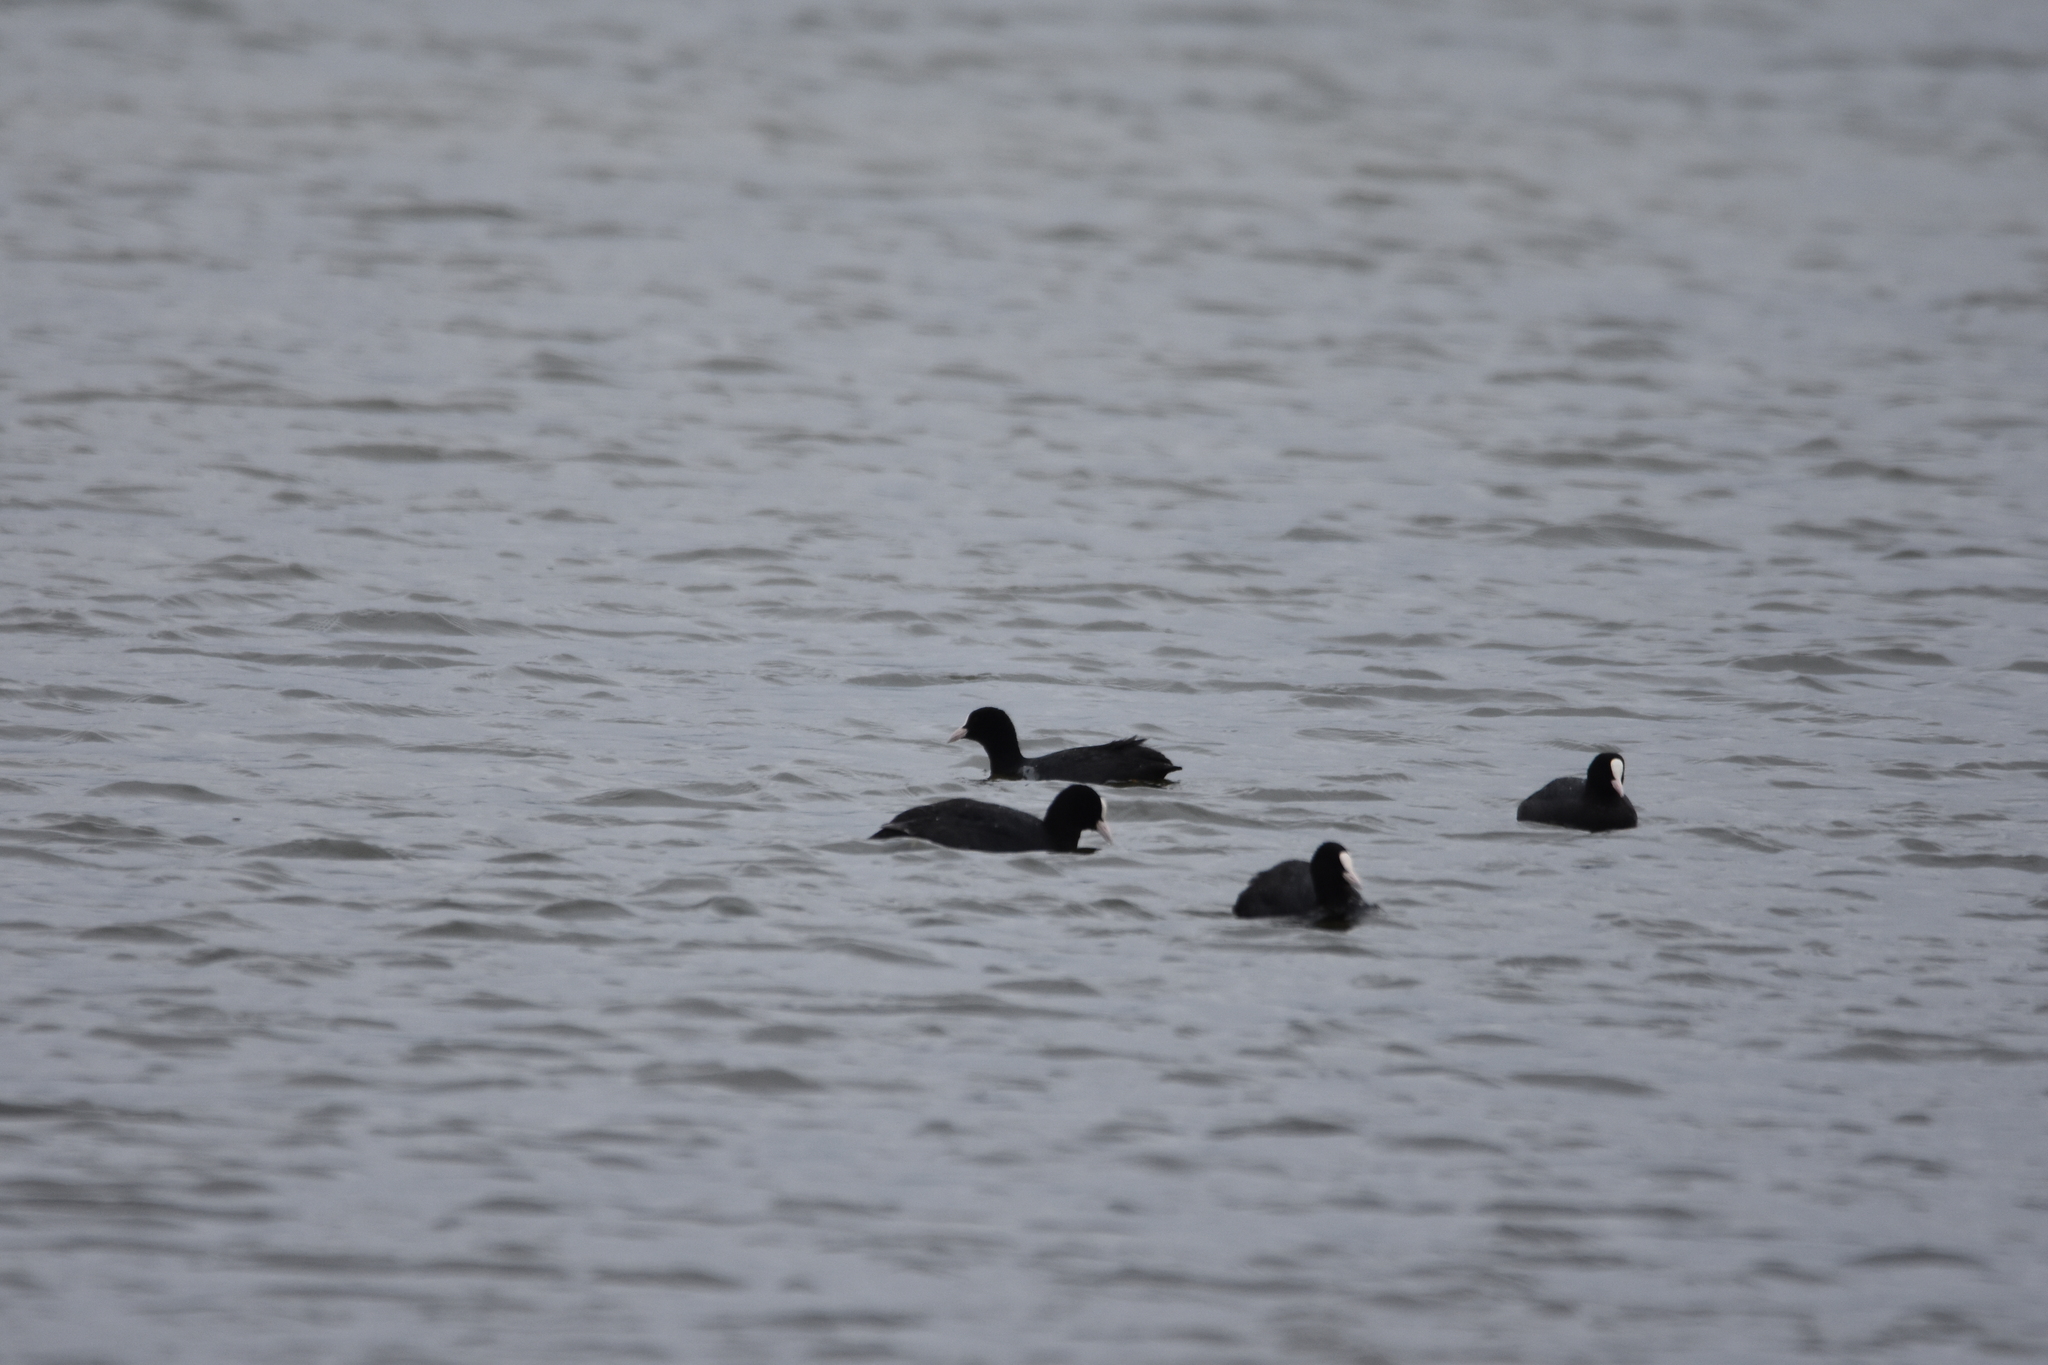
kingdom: Animalia
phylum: Chordata
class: Aves
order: Gruiformes
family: Rallidae
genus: Fulica
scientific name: Fulica atra
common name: Eurasian coot
